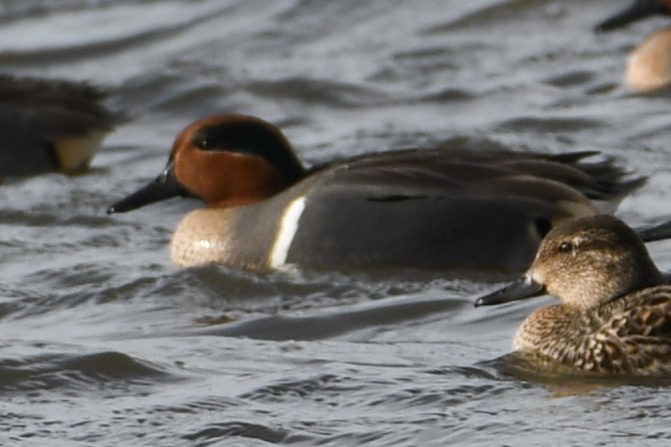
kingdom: Animalia
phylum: Chordata
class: Aves
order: Anseriformes
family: Anatidae
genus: Anas
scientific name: Anas crecca
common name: Eurasian teal
